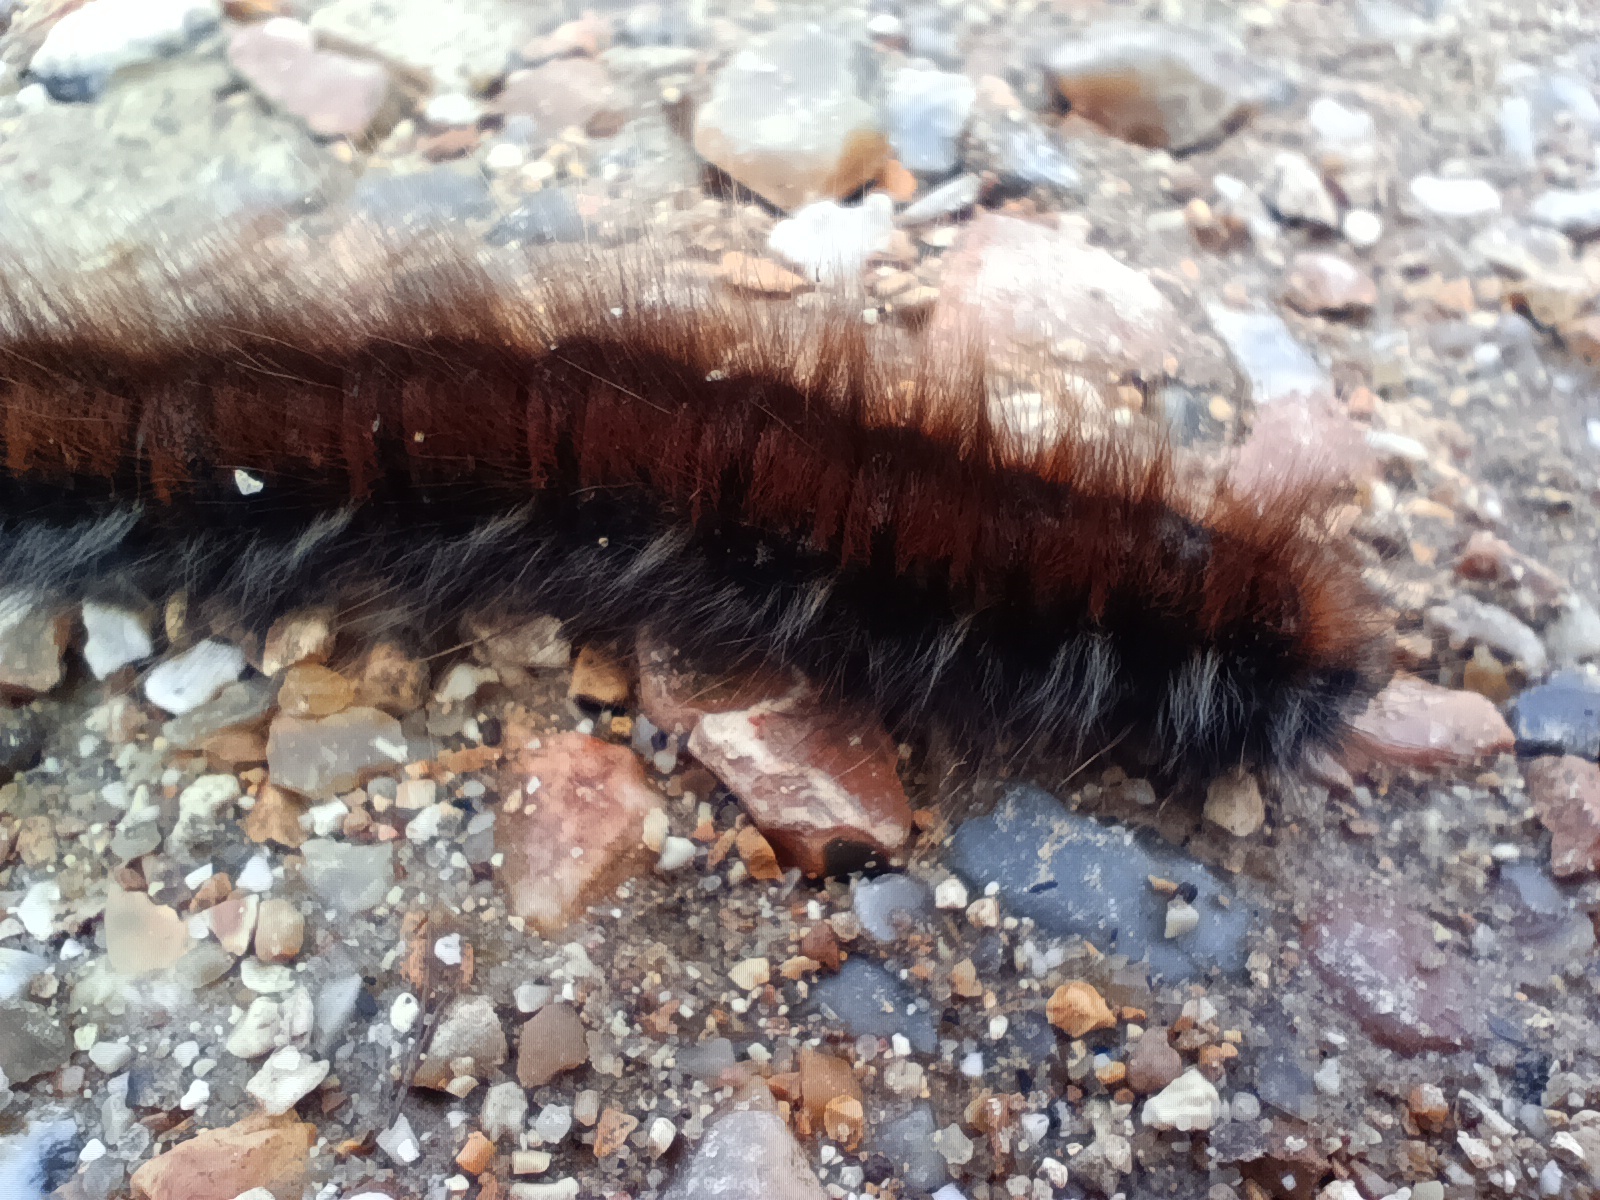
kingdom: Animalia
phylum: Arthropoda
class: Insecta
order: Lepidoptera
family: Lasiocampidae
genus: Macrothylacia
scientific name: Macrothylacia rubi
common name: Fox moth
